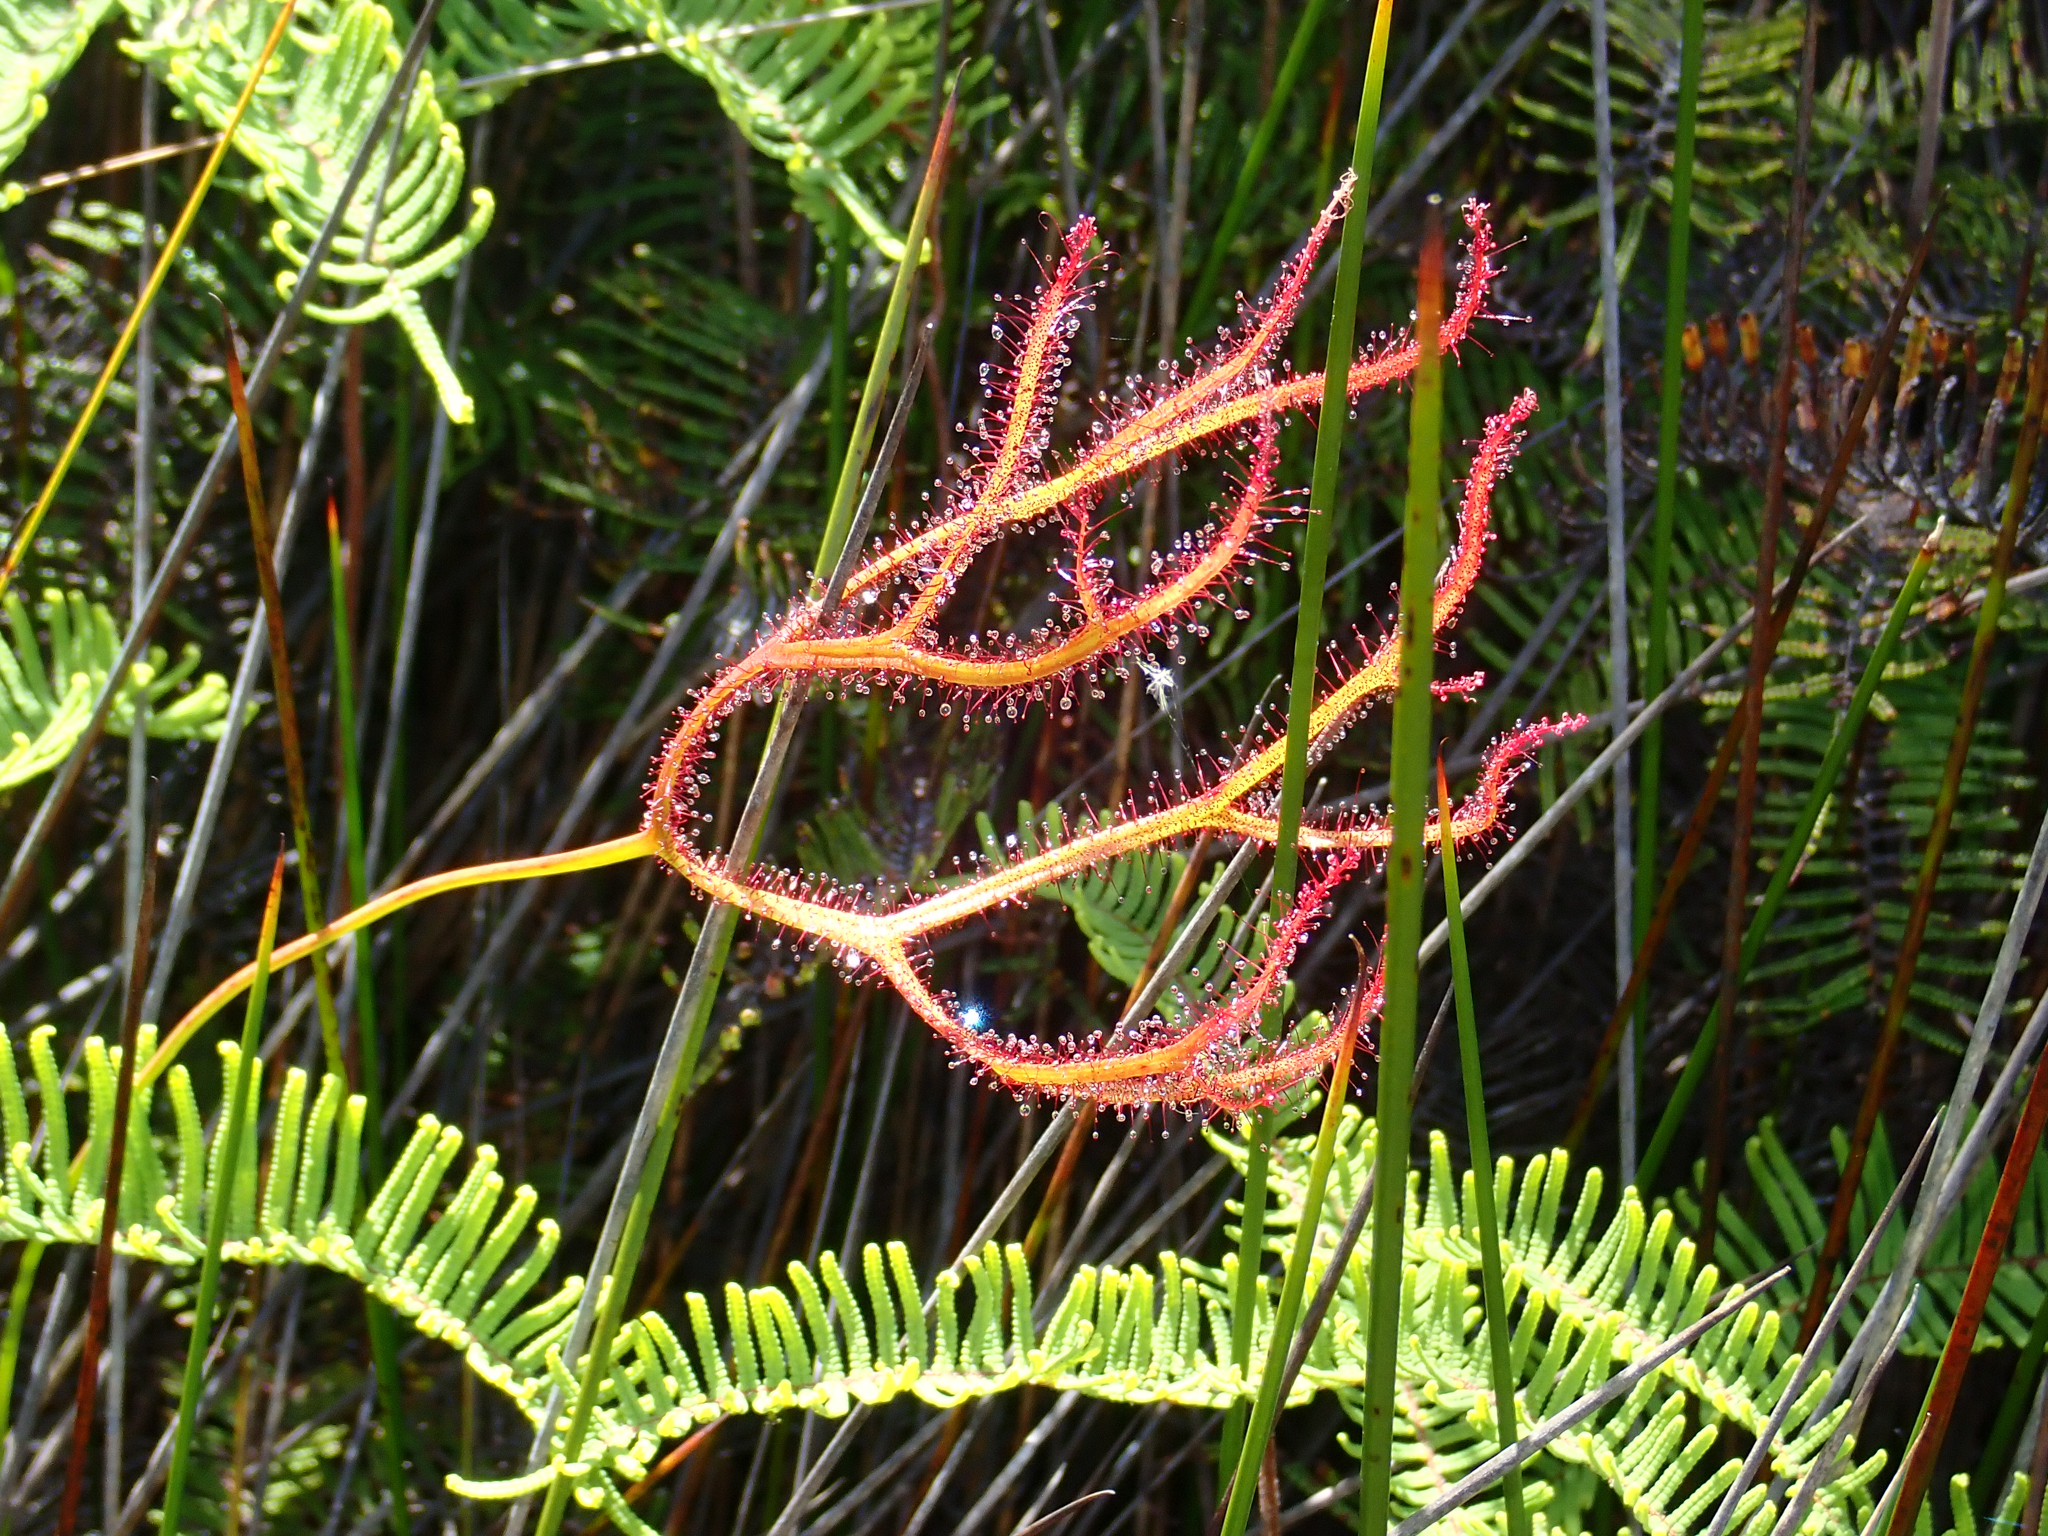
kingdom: Plantae
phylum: Tracheophyta
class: Magnoliopsida
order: Caryophyllales
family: Droseraceae
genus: Drosera
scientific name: Drosera binata
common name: Forked sundew
